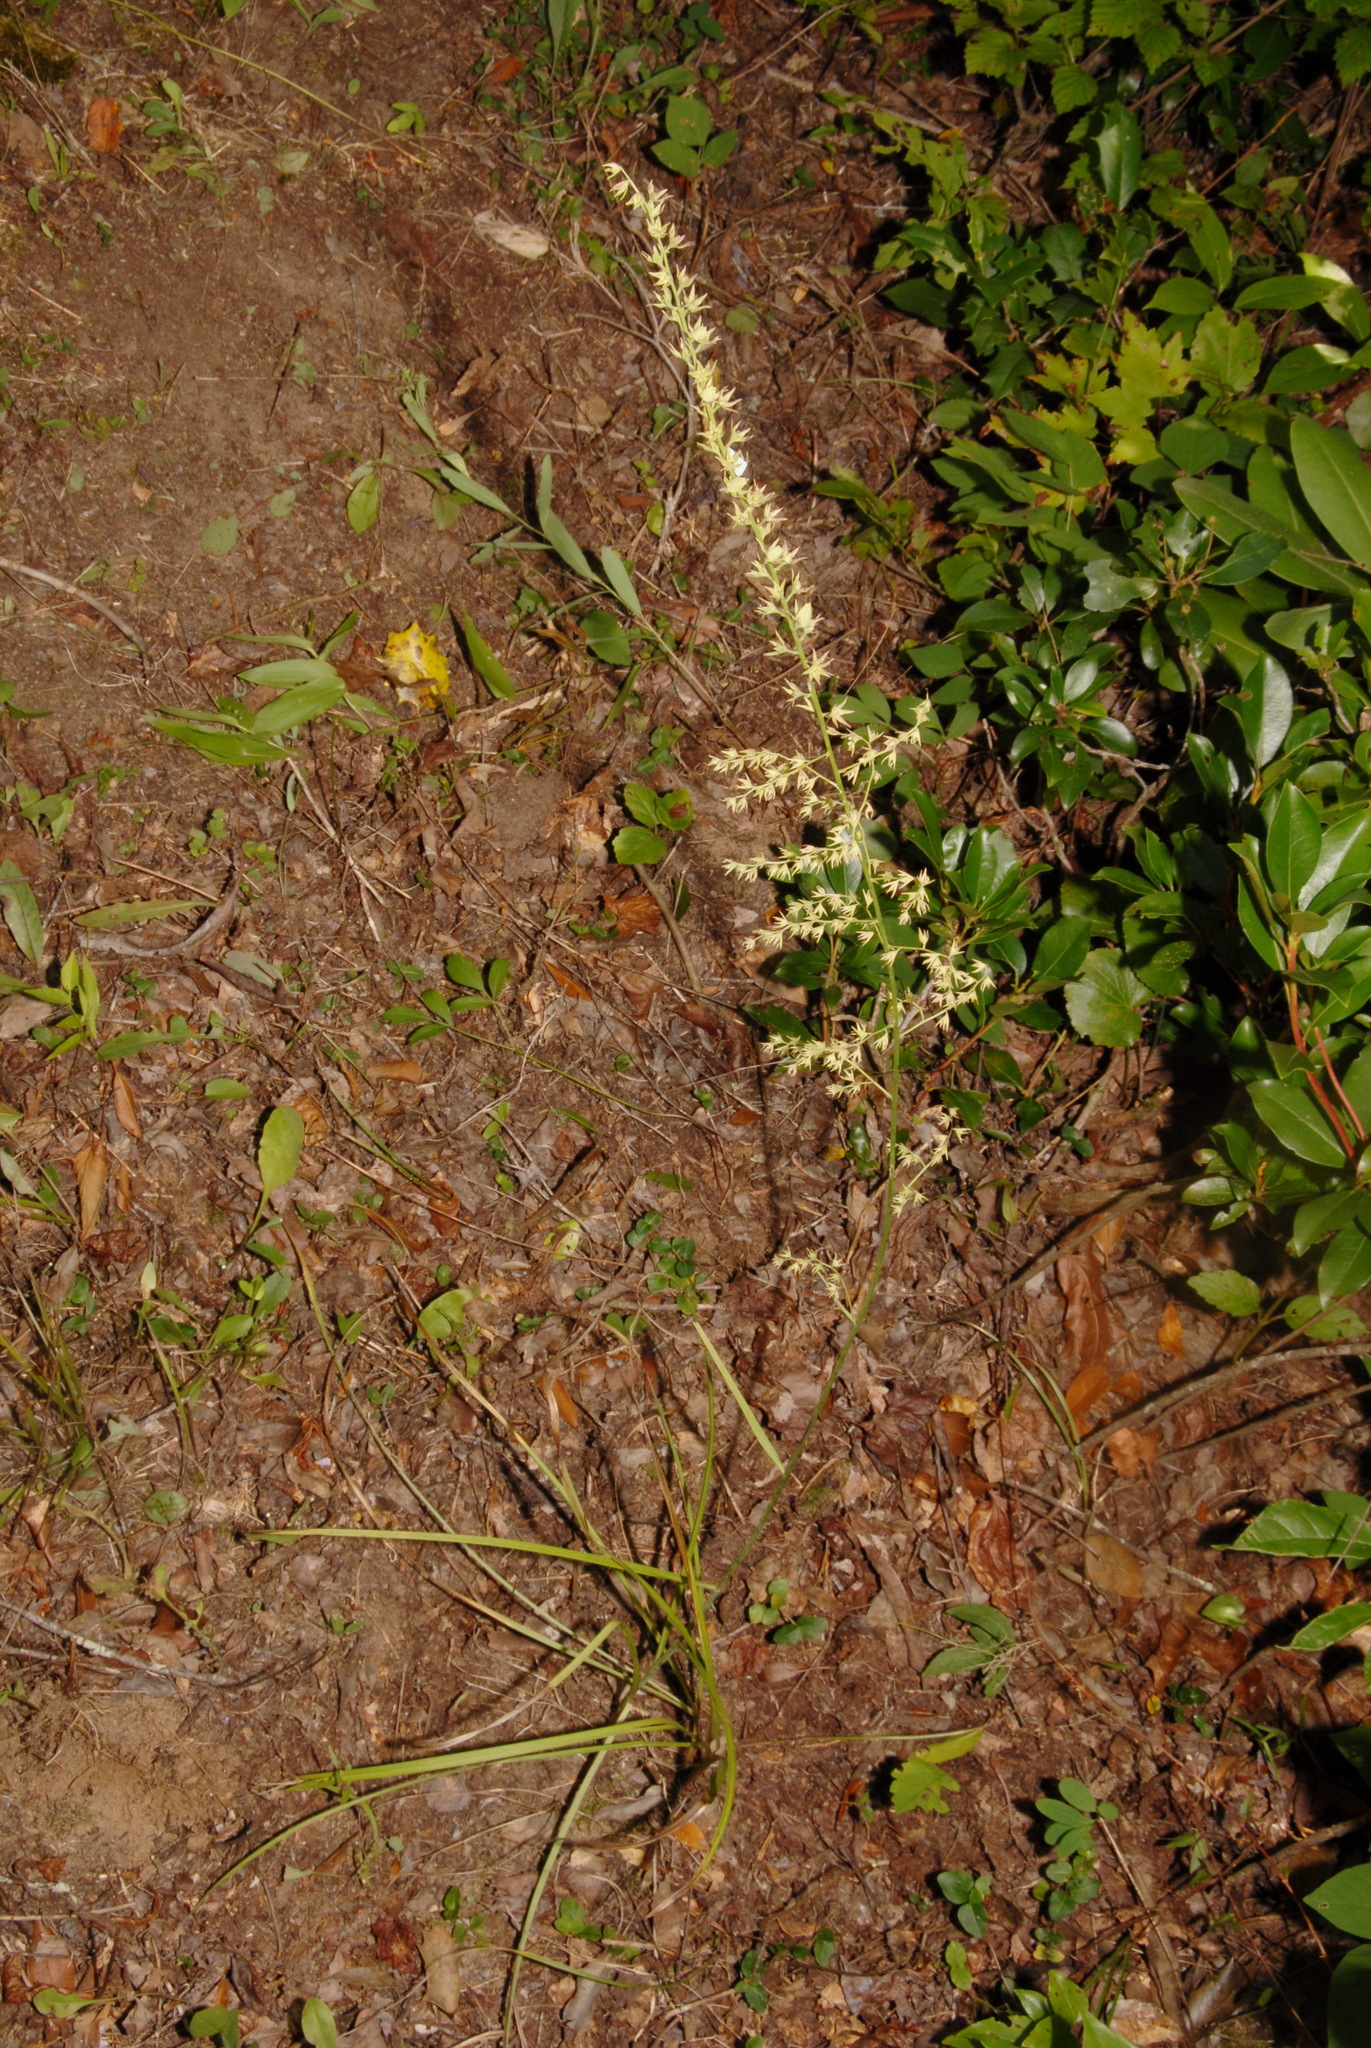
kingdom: Plantae
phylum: Tracheophyta
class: Liliopsida
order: Liliales
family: Melanthiaceae
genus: Stenanthium
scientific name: Stenanthium gramineum
